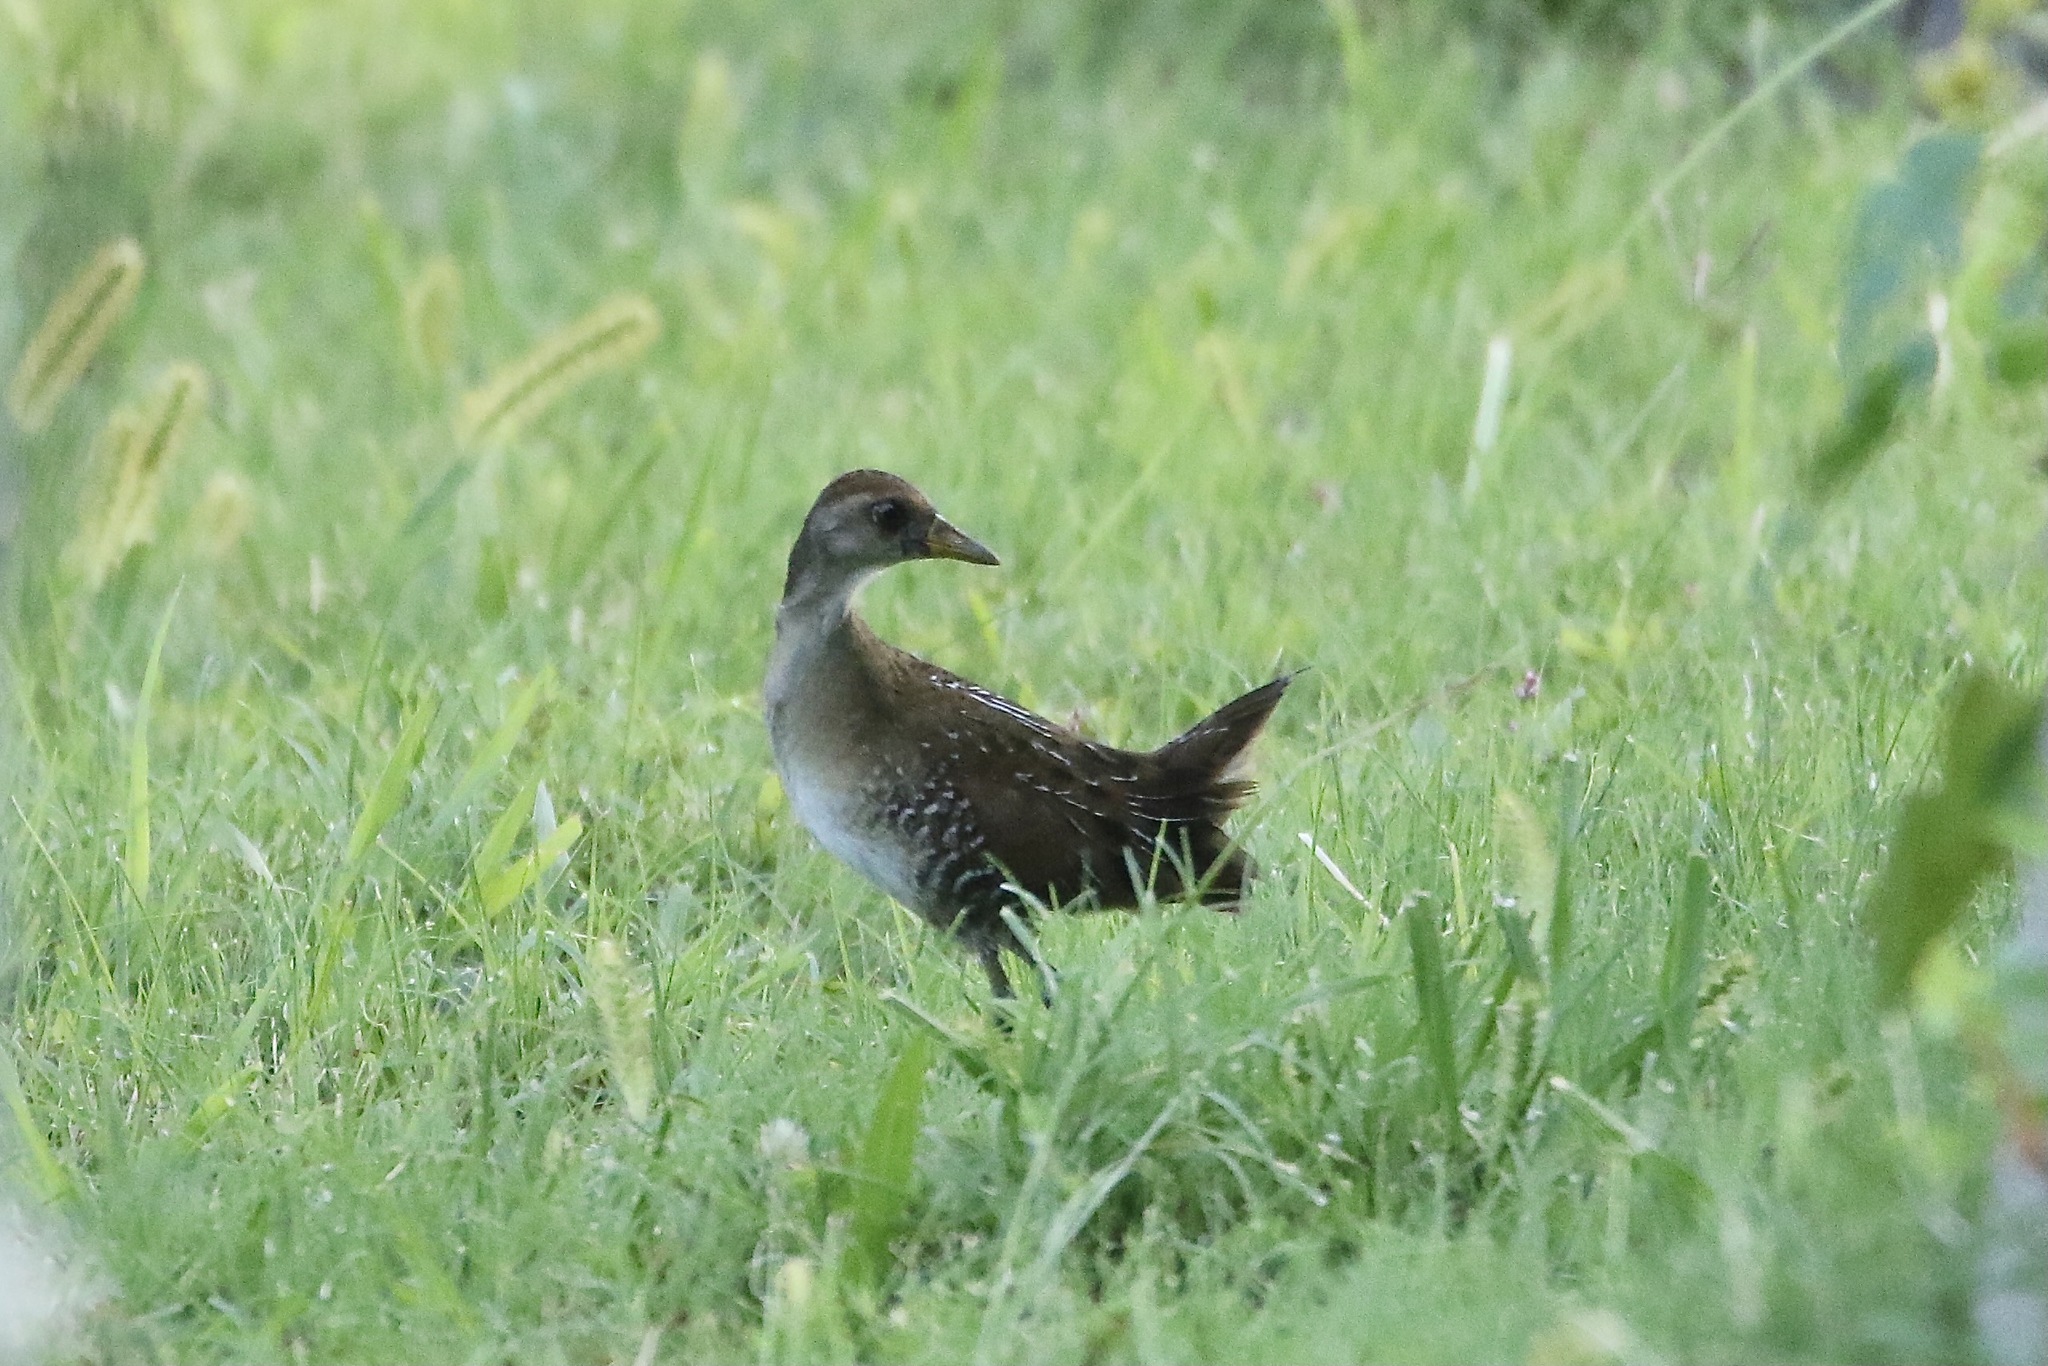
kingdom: Animalia
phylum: Chordata
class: Aves
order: Gruiformes
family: Rallidae
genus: Porzana
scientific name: Porzana carolina
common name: Sora
